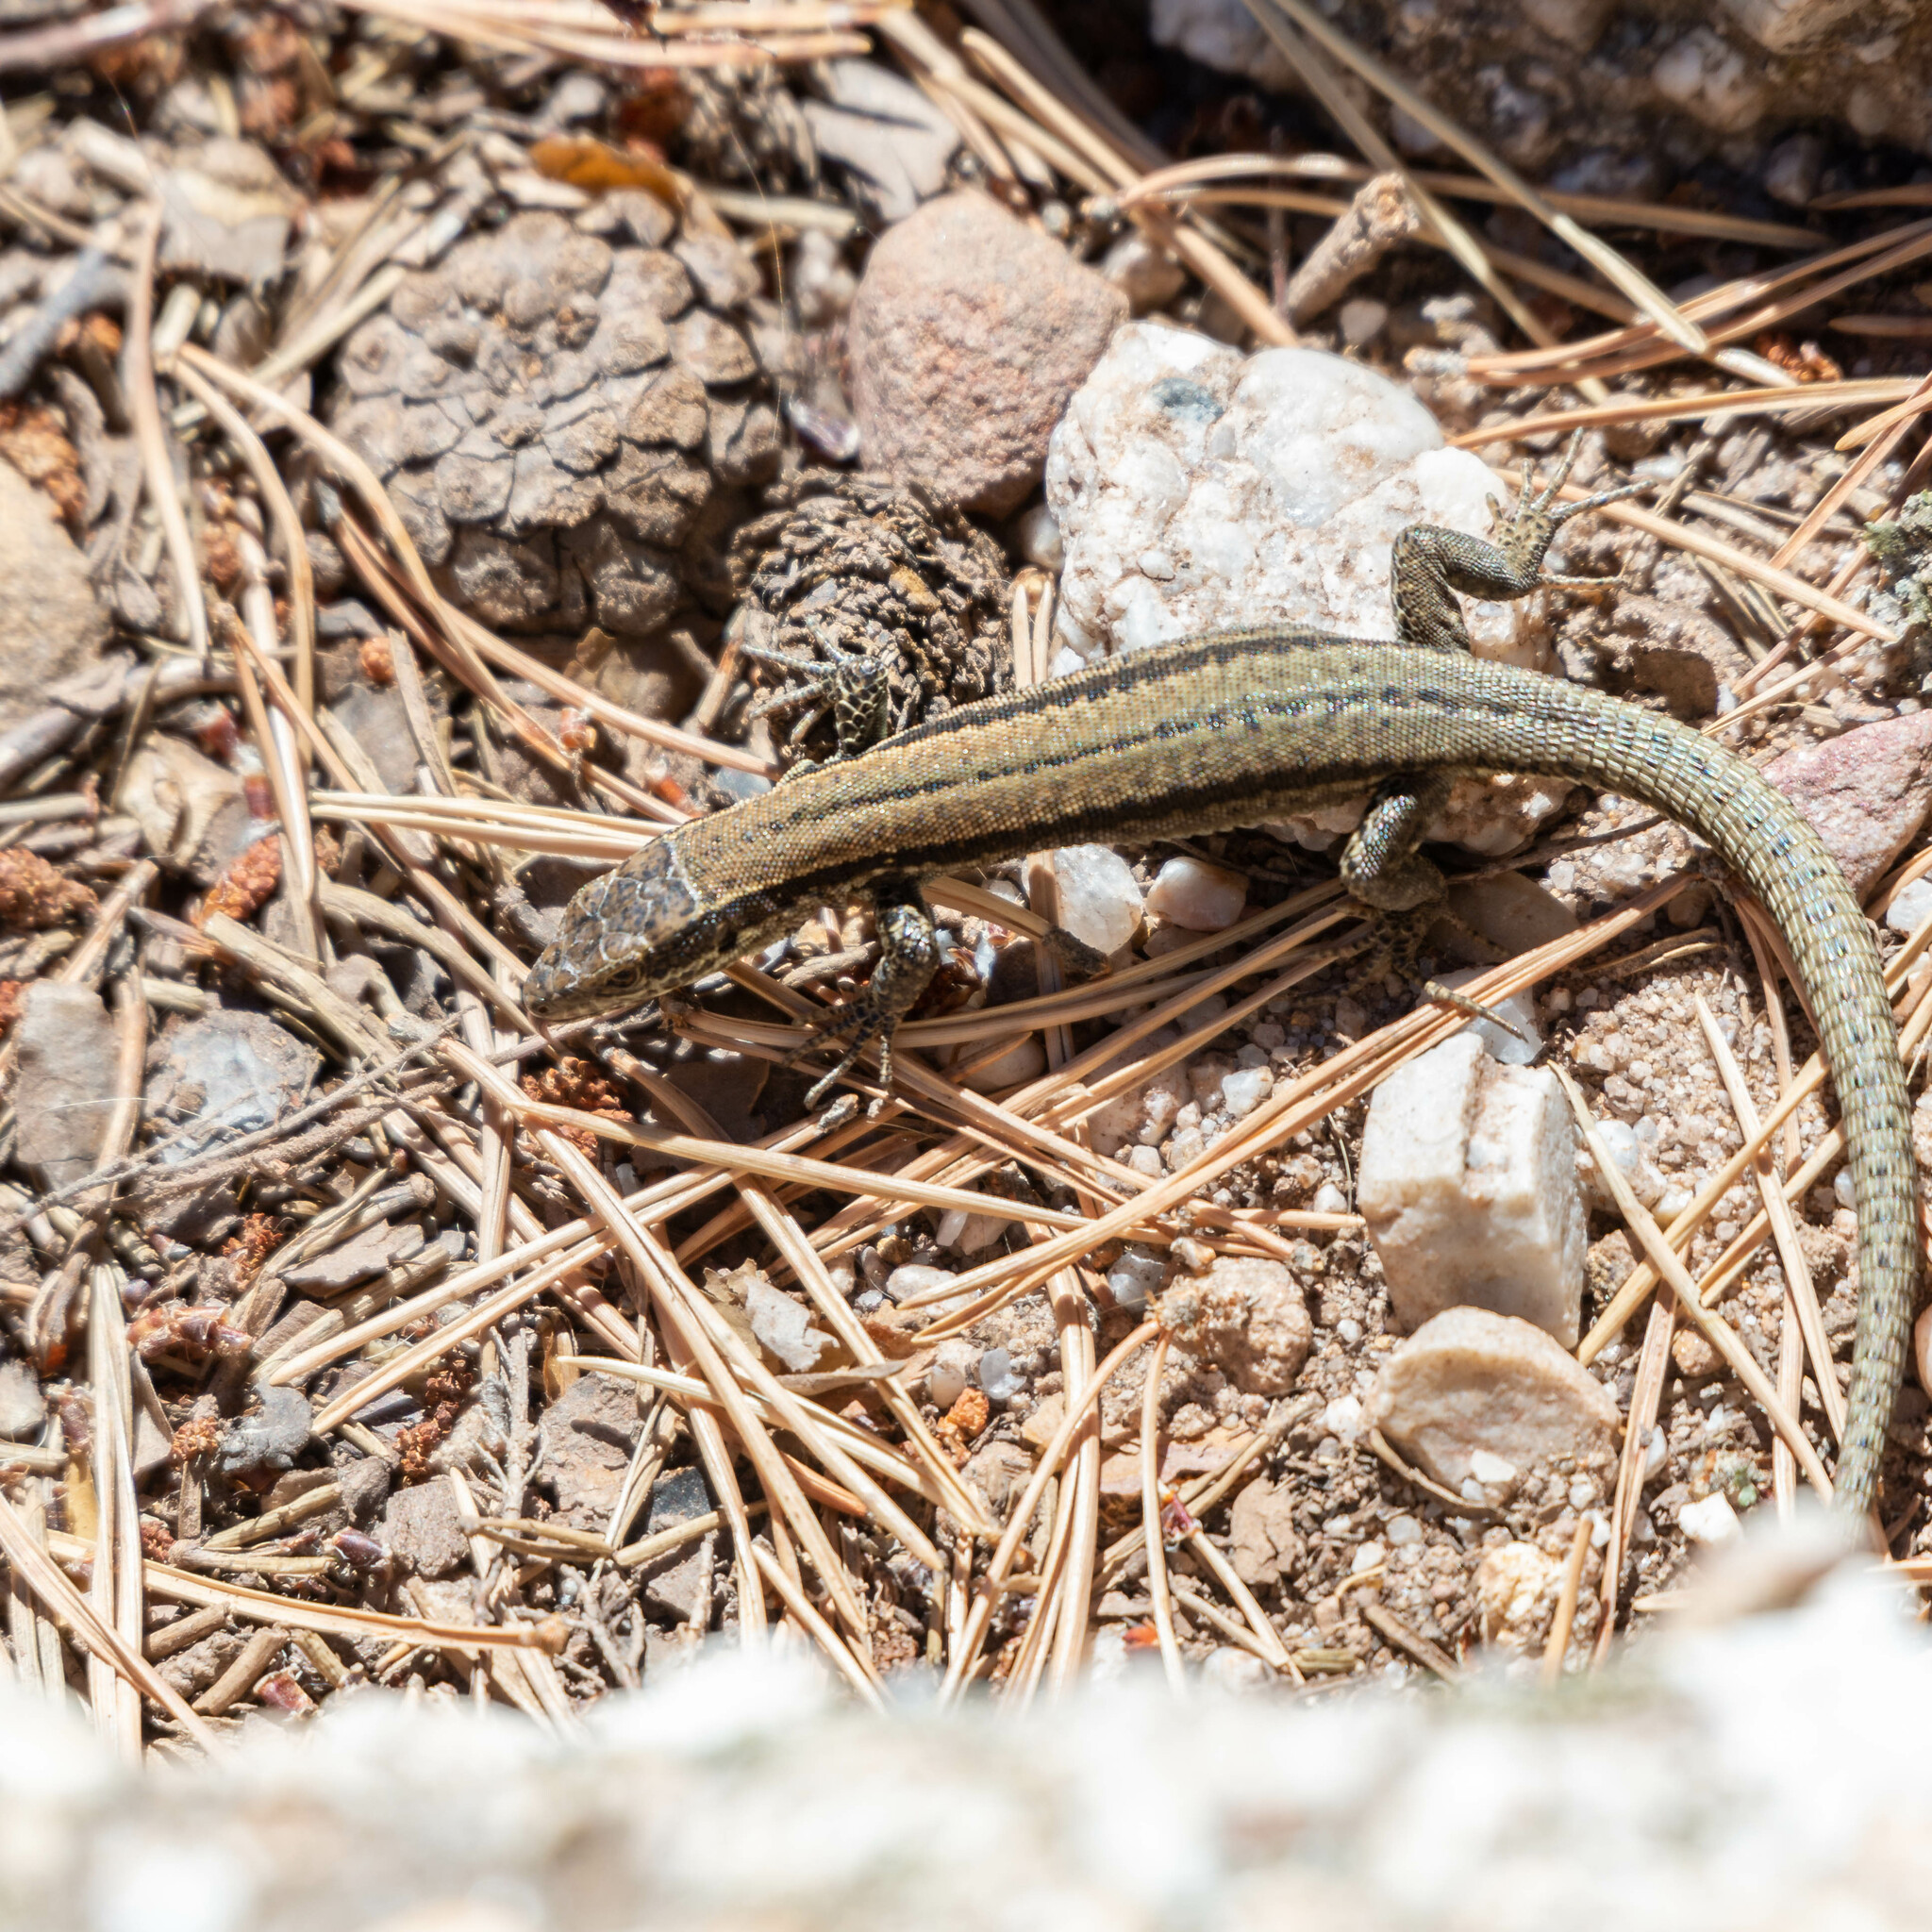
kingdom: Animalia
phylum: Chordata
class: Squamata
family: Lacertidae
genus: Podarcis
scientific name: Podarcis muralis
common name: Common wall lizard
